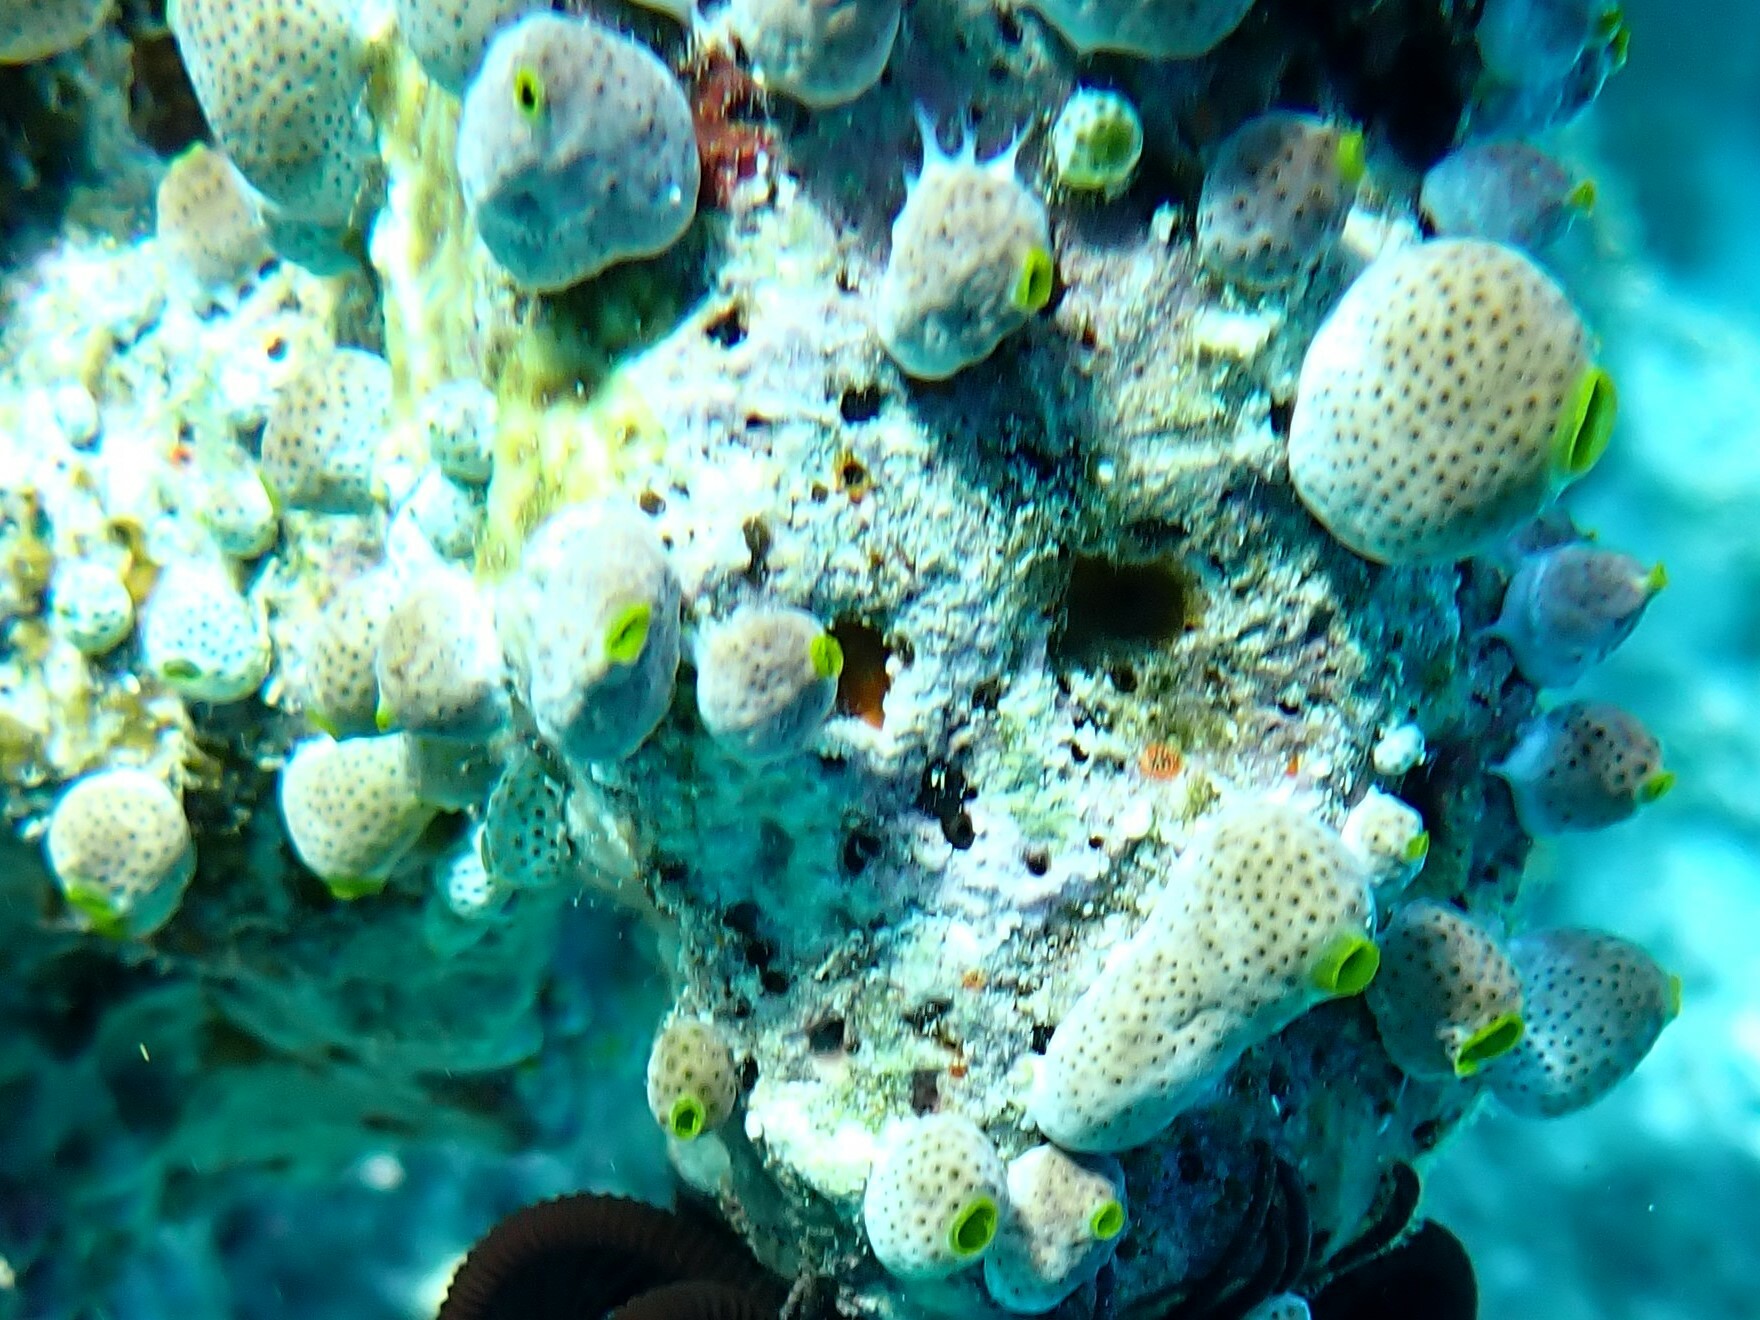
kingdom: Animalia
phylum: Chordata
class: Ascidiacea
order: Aplousobranchia
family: Didemnidae
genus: Didemnum
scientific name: Didemnum molle
